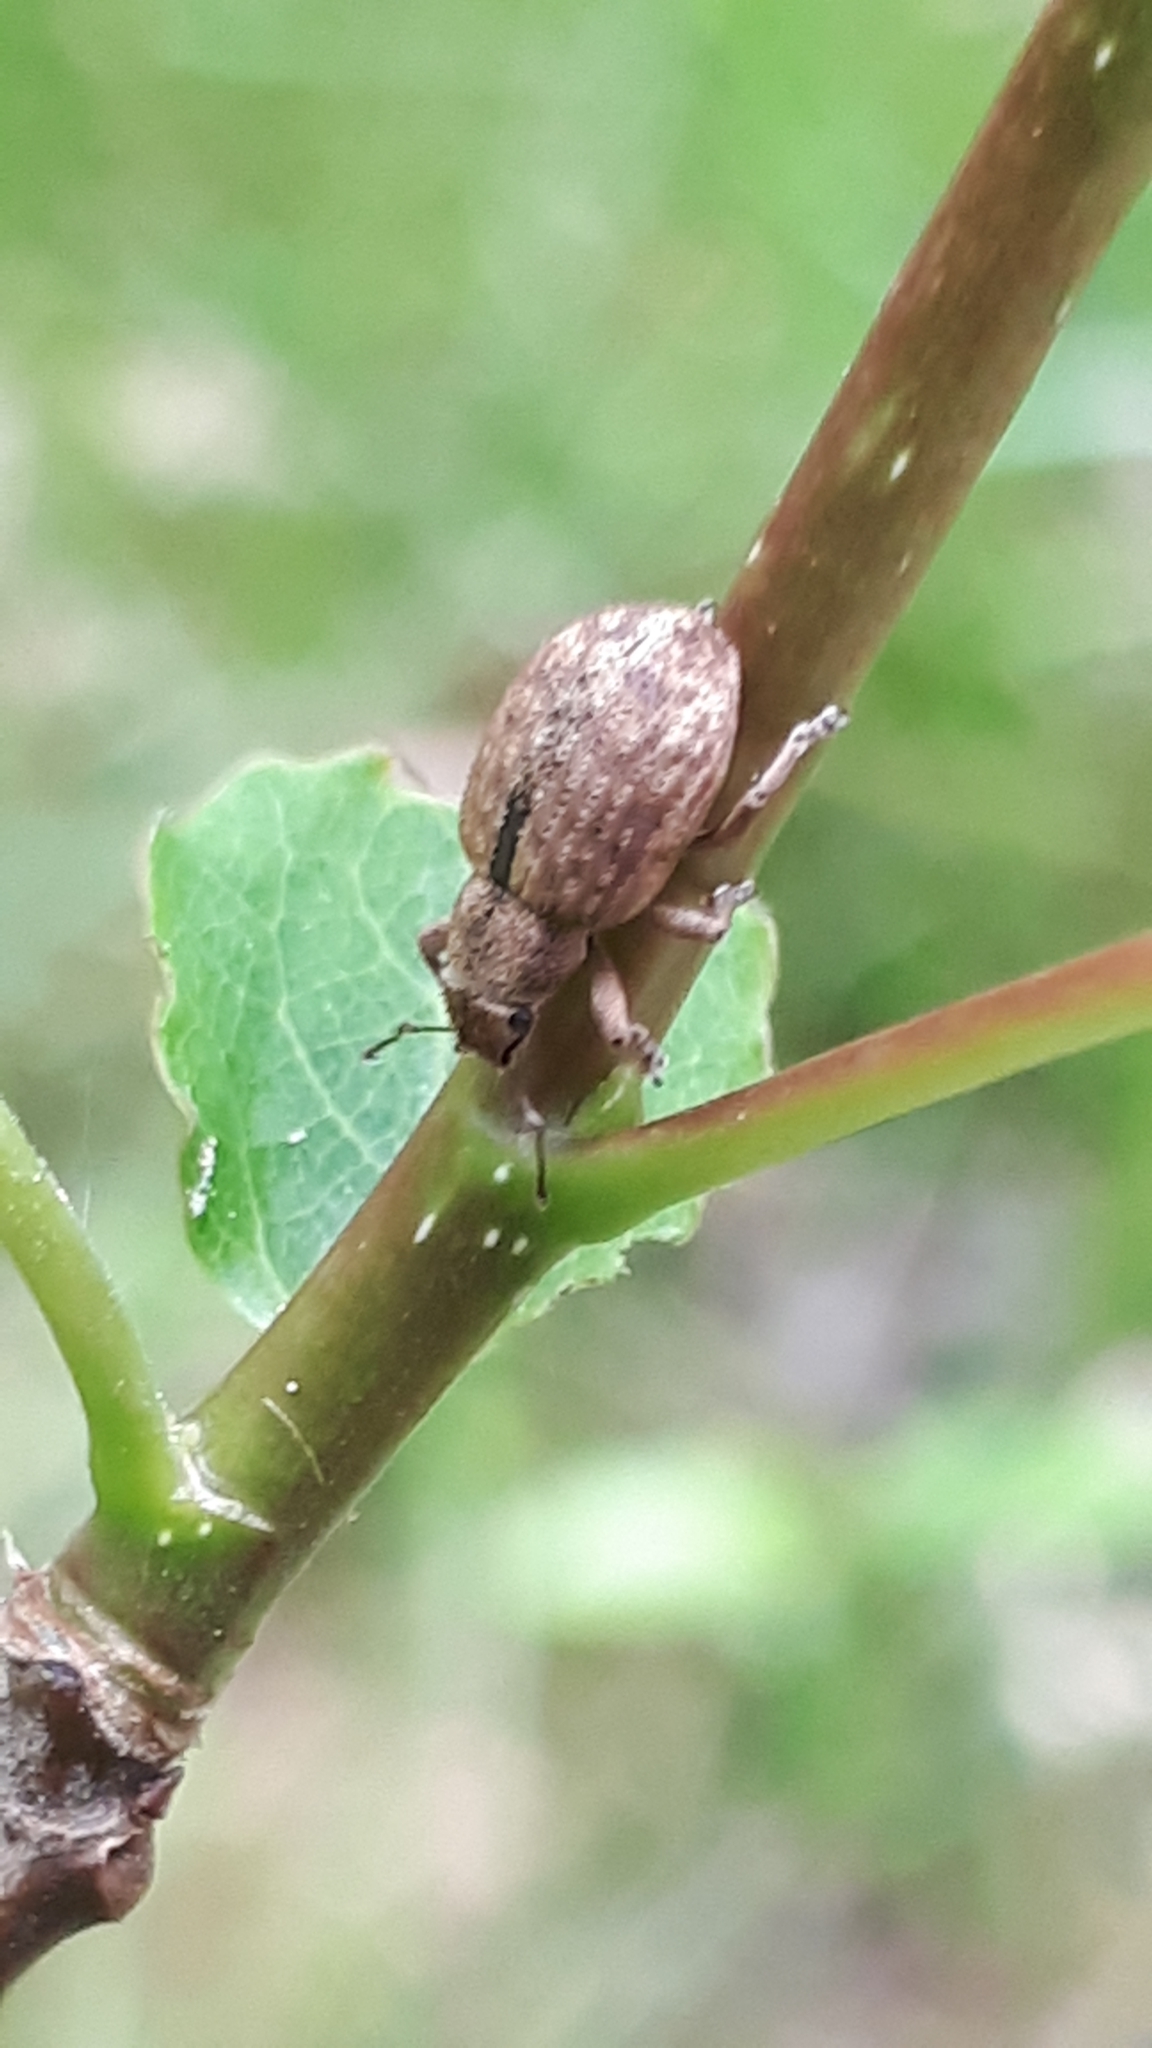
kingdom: Animalia
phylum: Arthropoda
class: Insecta
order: Coleoptera
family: Curculionidae
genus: Strophosoma
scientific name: Strophosoma melanogrammum
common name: Weevil
